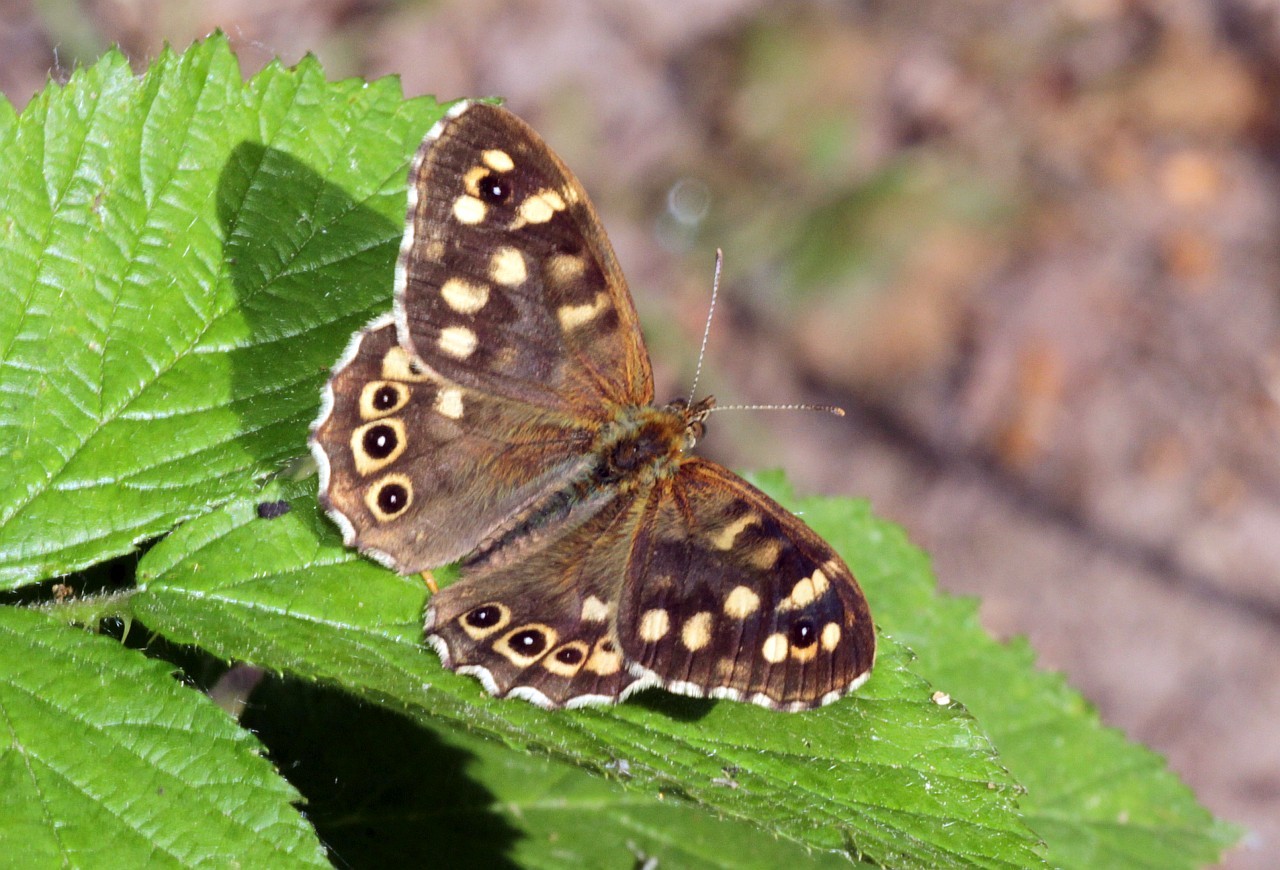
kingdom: Animalia
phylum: Arthropoda
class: Insecta
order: Lepidoptera
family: Nymphalidae
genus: Pararge
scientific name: Pararge aegeria
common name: Speckled wood
